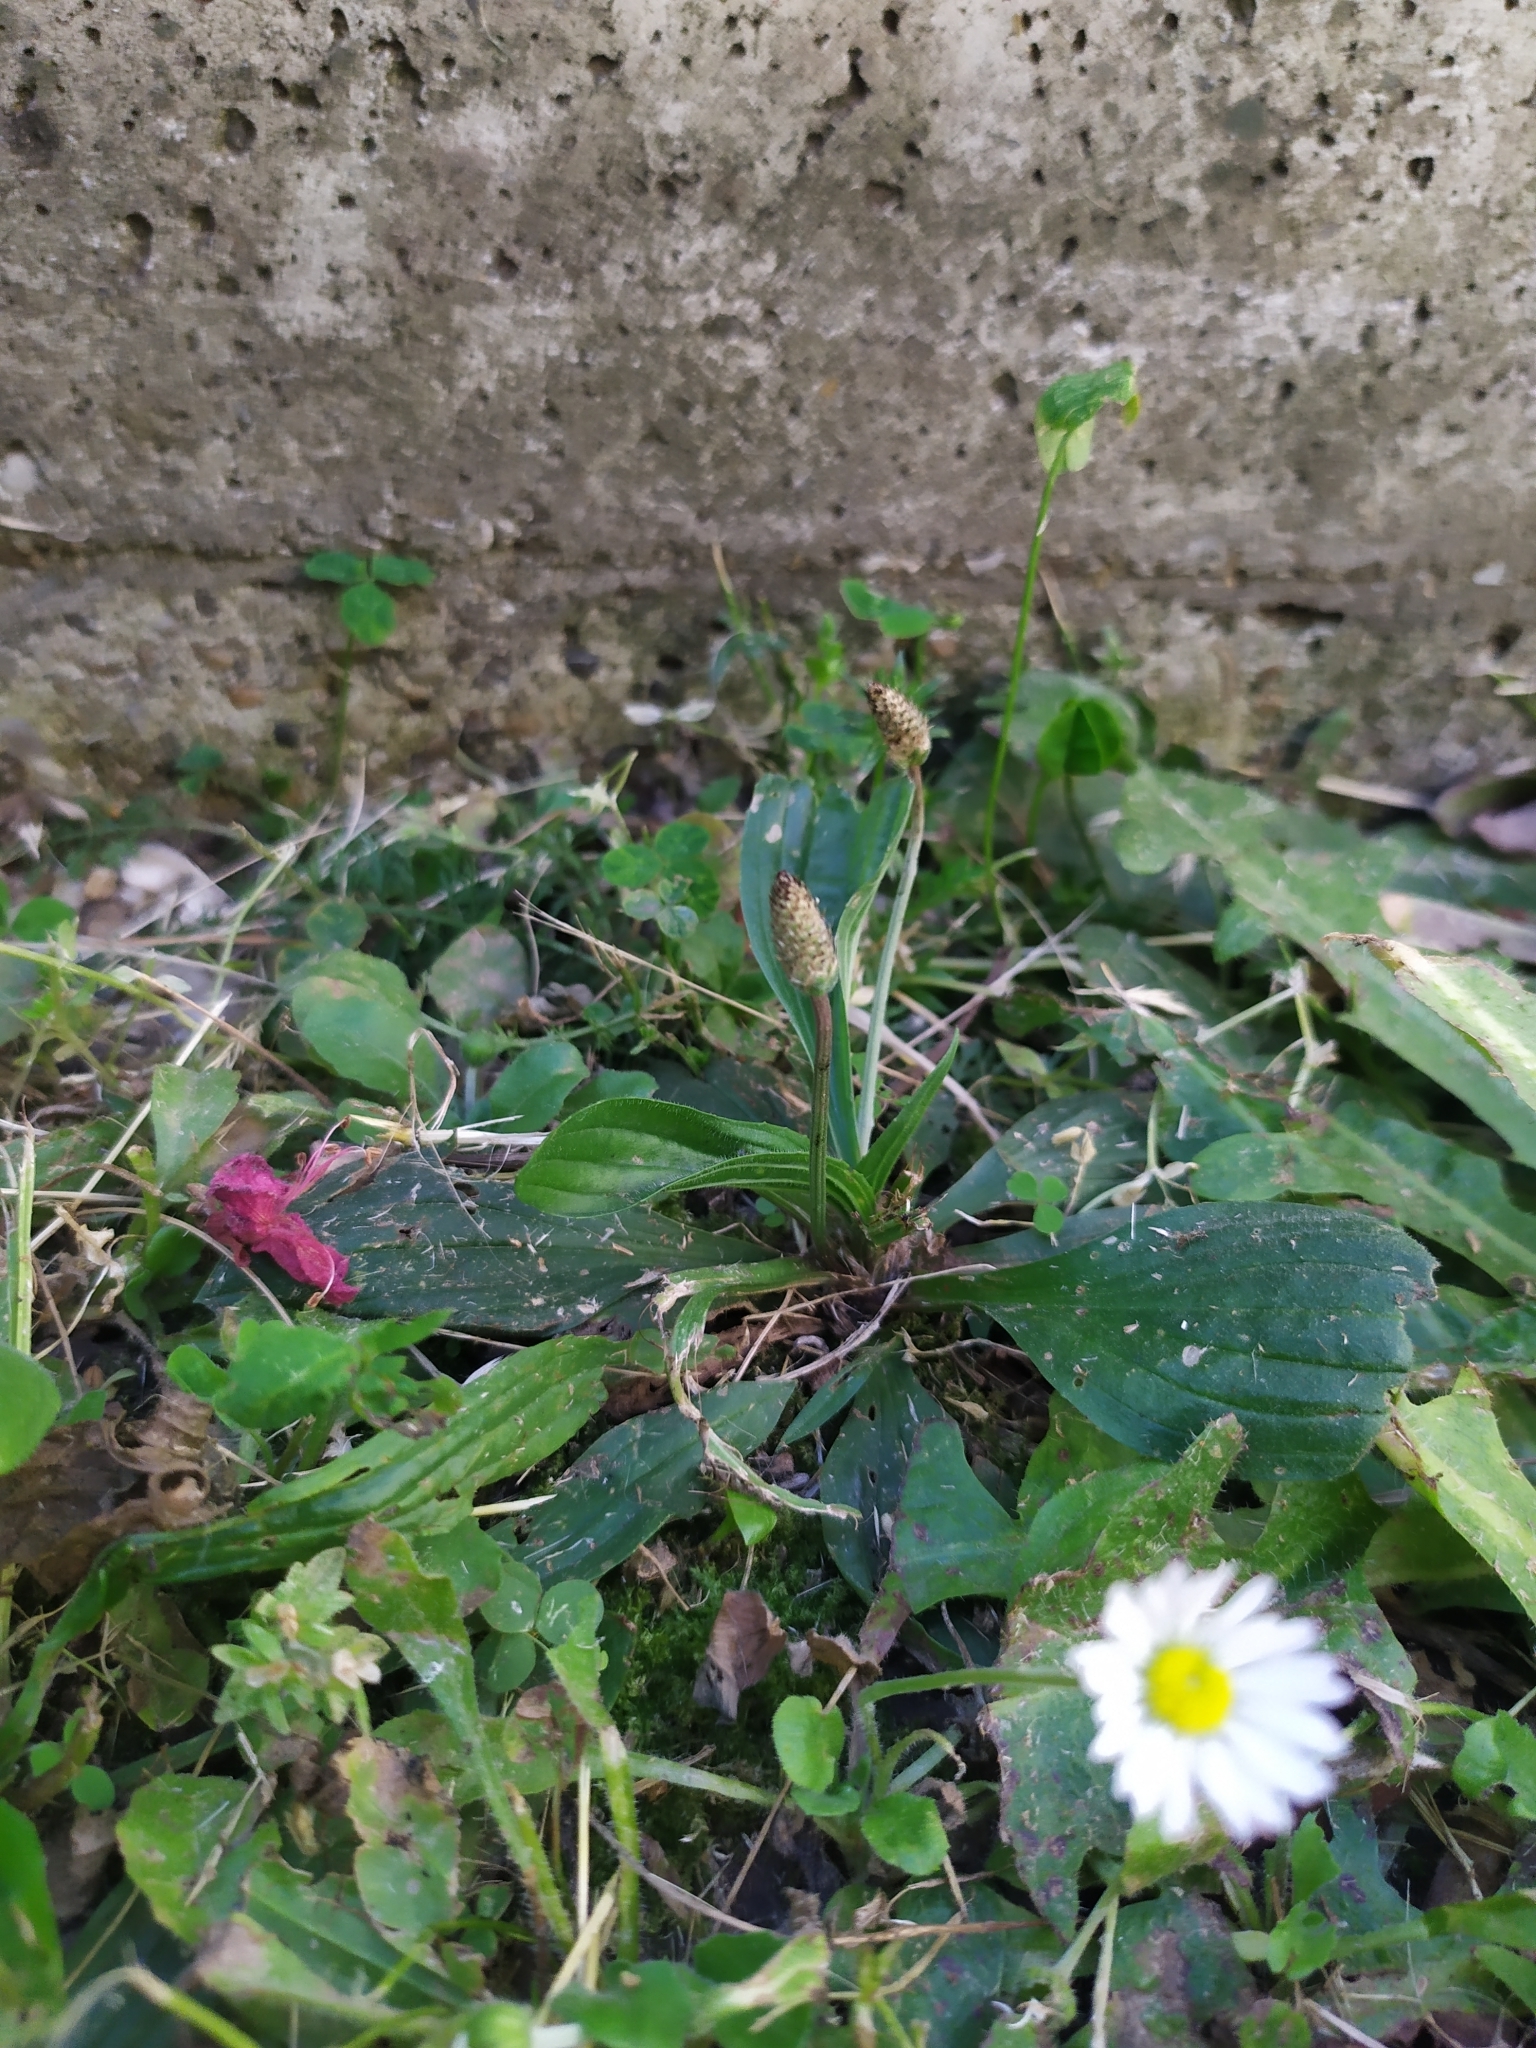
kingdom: Plantae
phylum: Tracheophyta
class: Magnoliopsida
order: Lamiales
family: Plantaginaceae
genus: Plantago
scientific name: Plantago lanceolata
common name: Ribwort plantain
